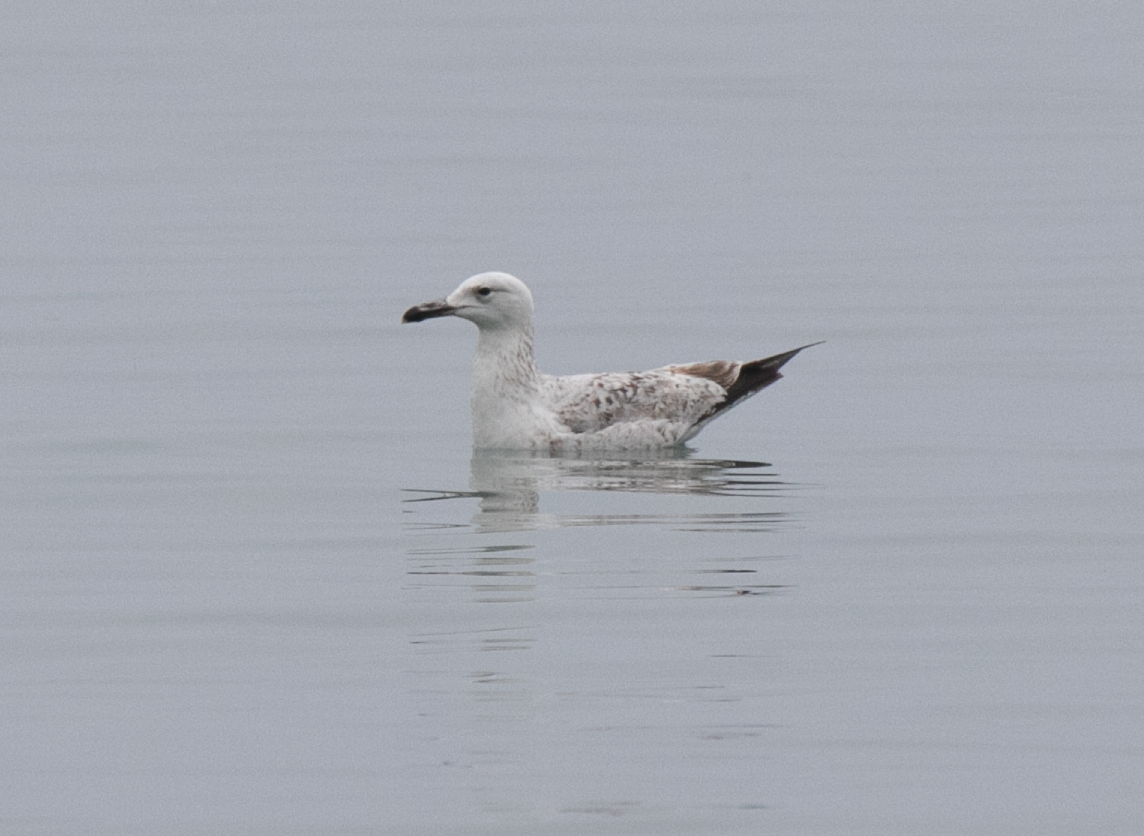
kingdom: Animalia
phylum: Chordata
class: Aves
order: Charadriiformes
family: Laridae
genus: Larus
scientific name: Larus cachinnans
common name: Caspian gull
